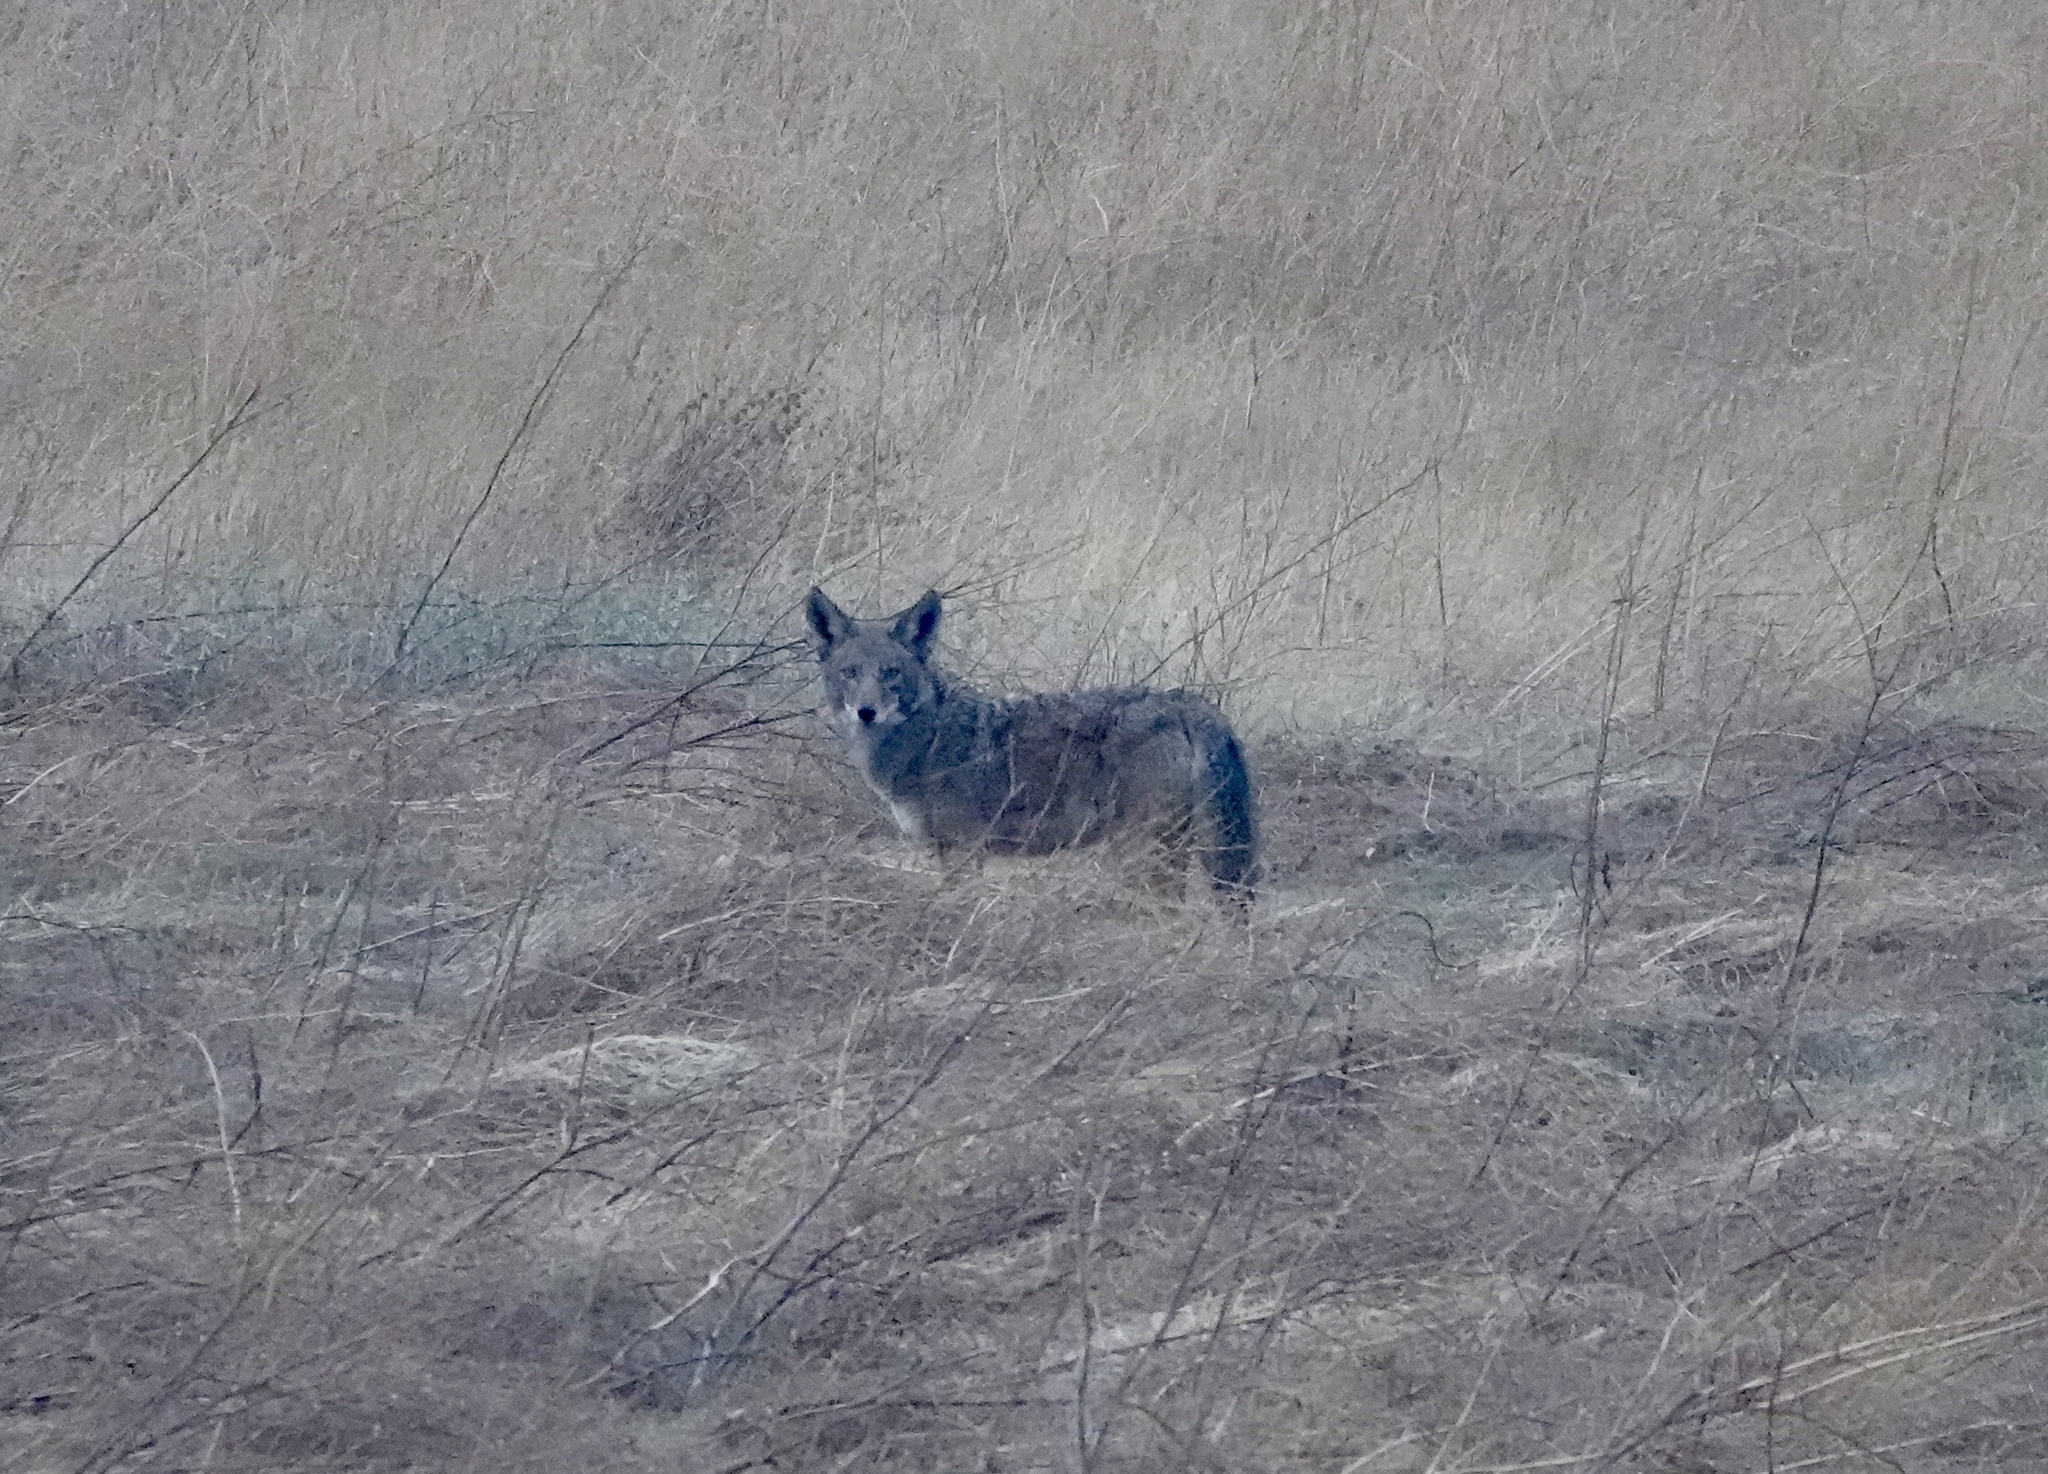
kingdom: Animalia
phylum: Chordata
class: Mammalia
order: Carnivora
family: Canidae
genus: Canis
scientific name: Canis latrans
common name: Coyote
